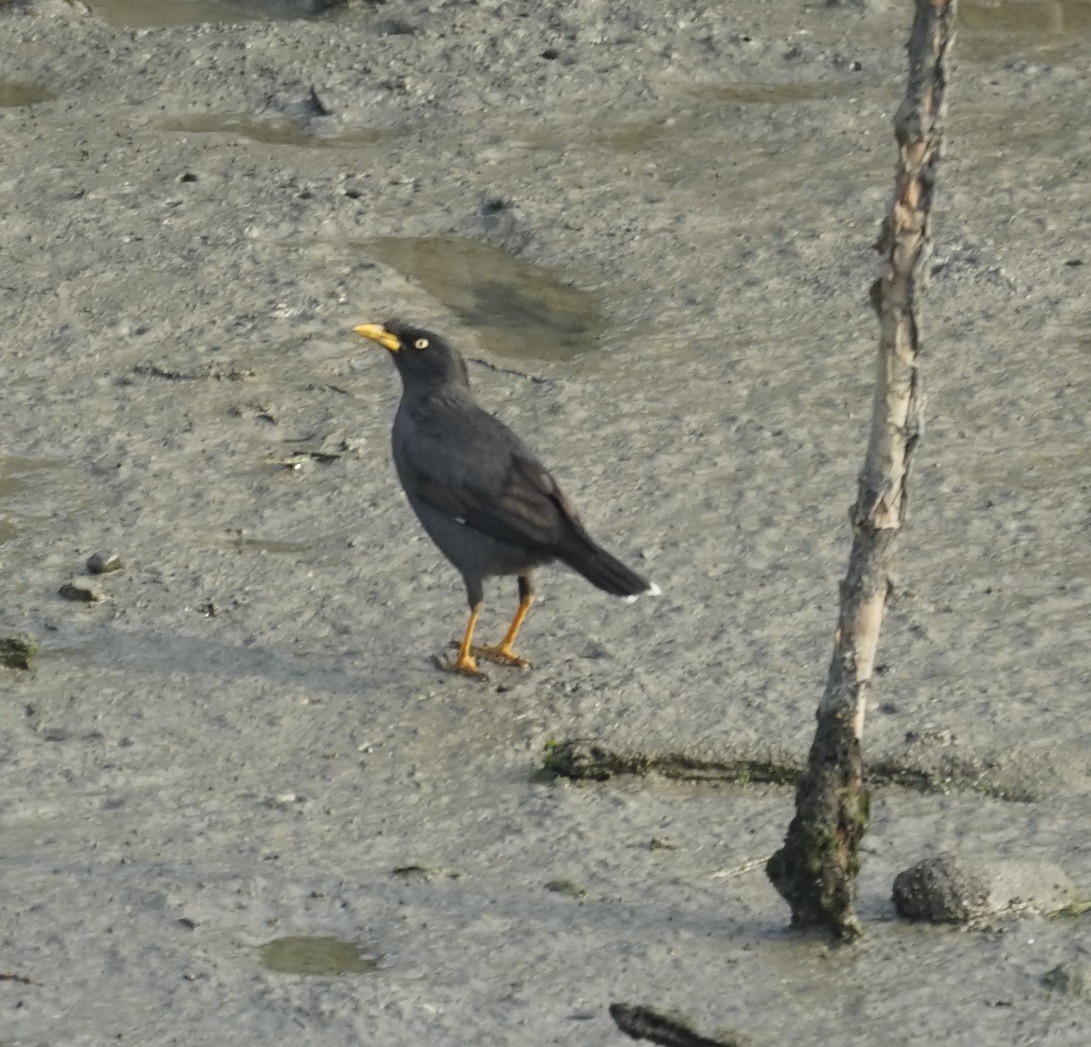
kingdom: Animalia
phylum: Chordata
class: Aves
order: Passeriformes
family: Sturnidae
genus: Acridotheres
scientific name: Acridotheres javanicus
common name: Javan myna
